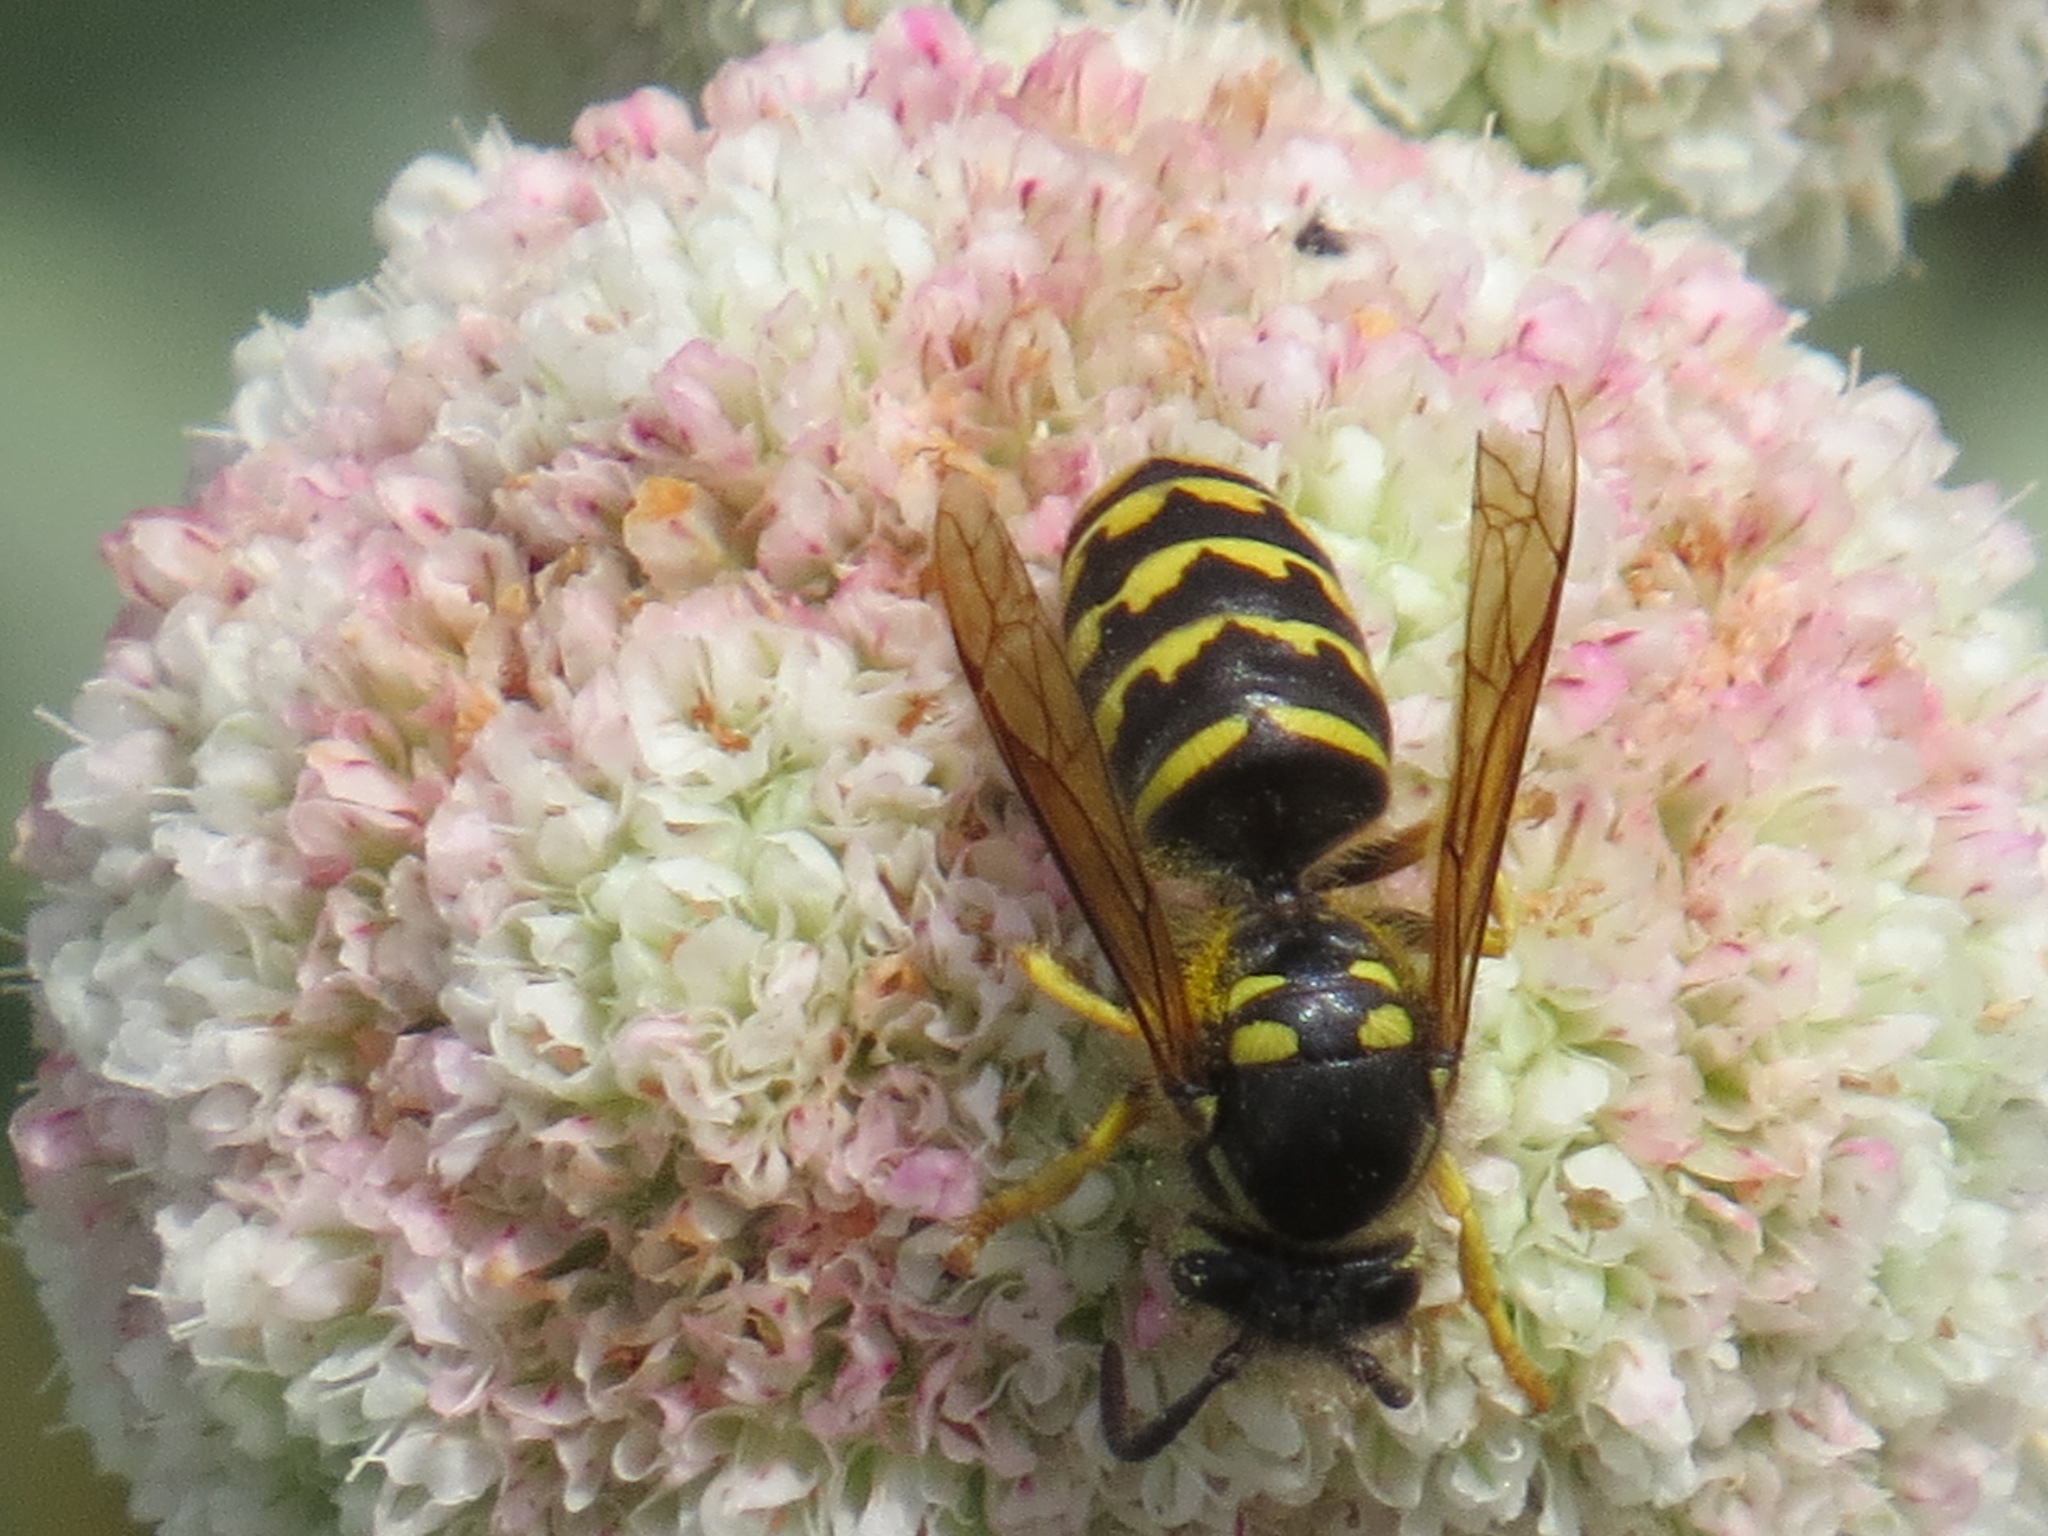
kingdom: Animalia
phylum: Arthropoda
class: Insecta
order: Hymenoptera
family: Vespidae
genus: Dolichovespula
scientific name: Dolichovespula arenaria
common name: Aerial yellowjacket
